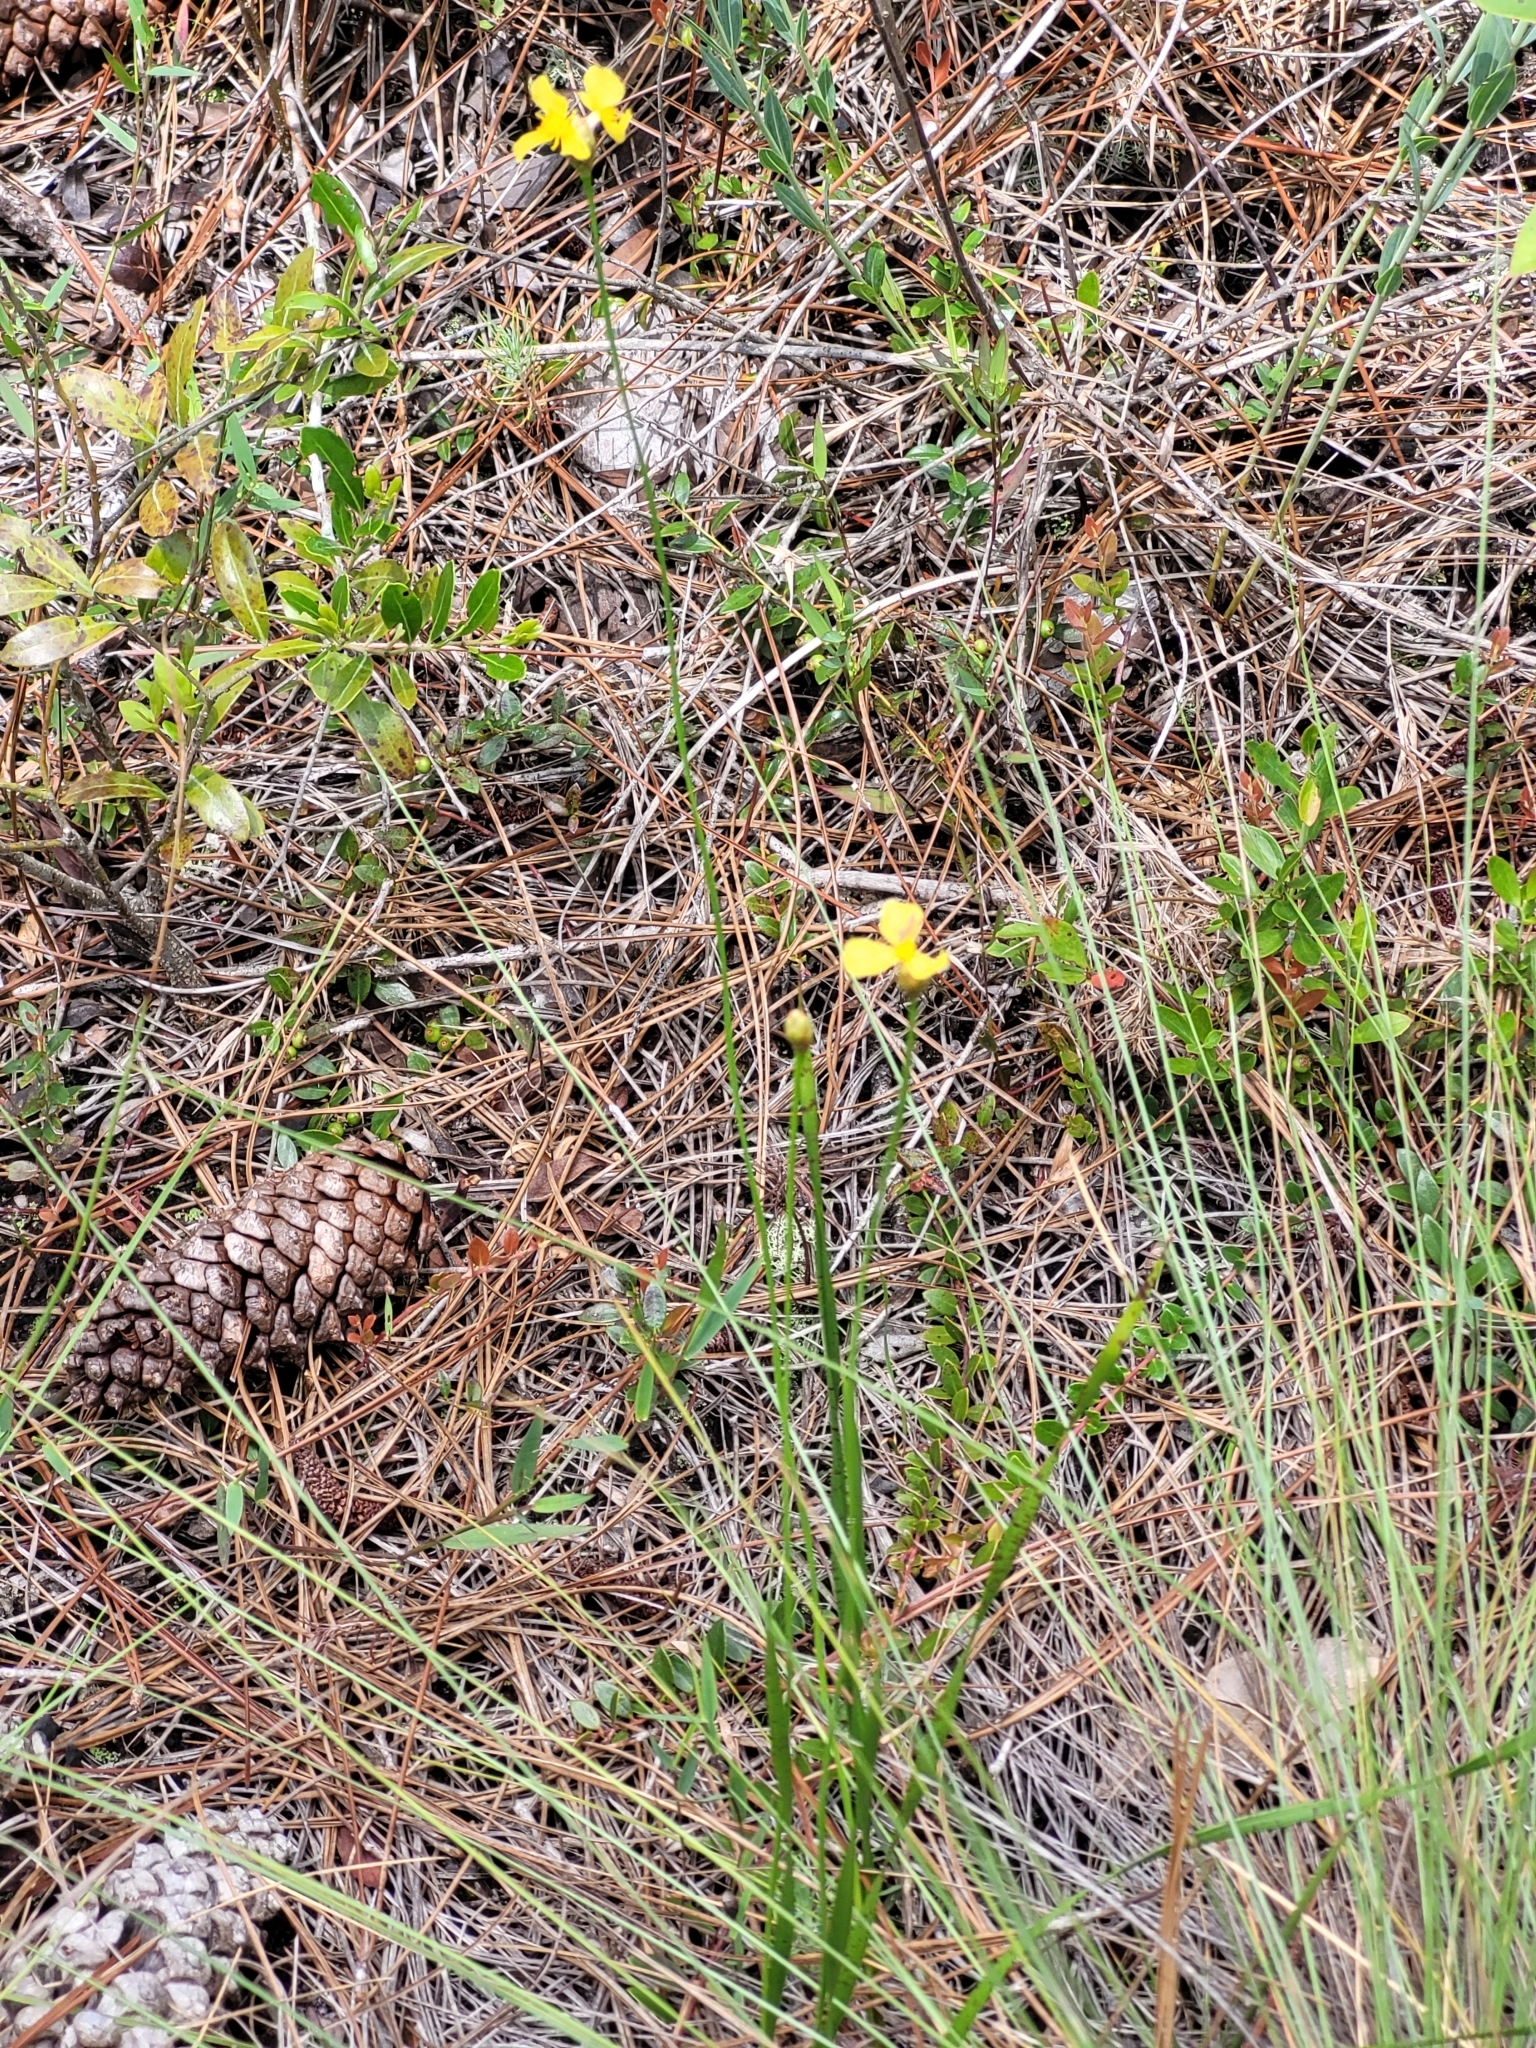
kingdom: Plantae
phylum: Tracheophyta
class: Liliopsida
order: Poales
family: Xyridaceae
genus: Xyris
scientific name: Xyris caroliniana
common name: Carolina yellow-eyed-grass
